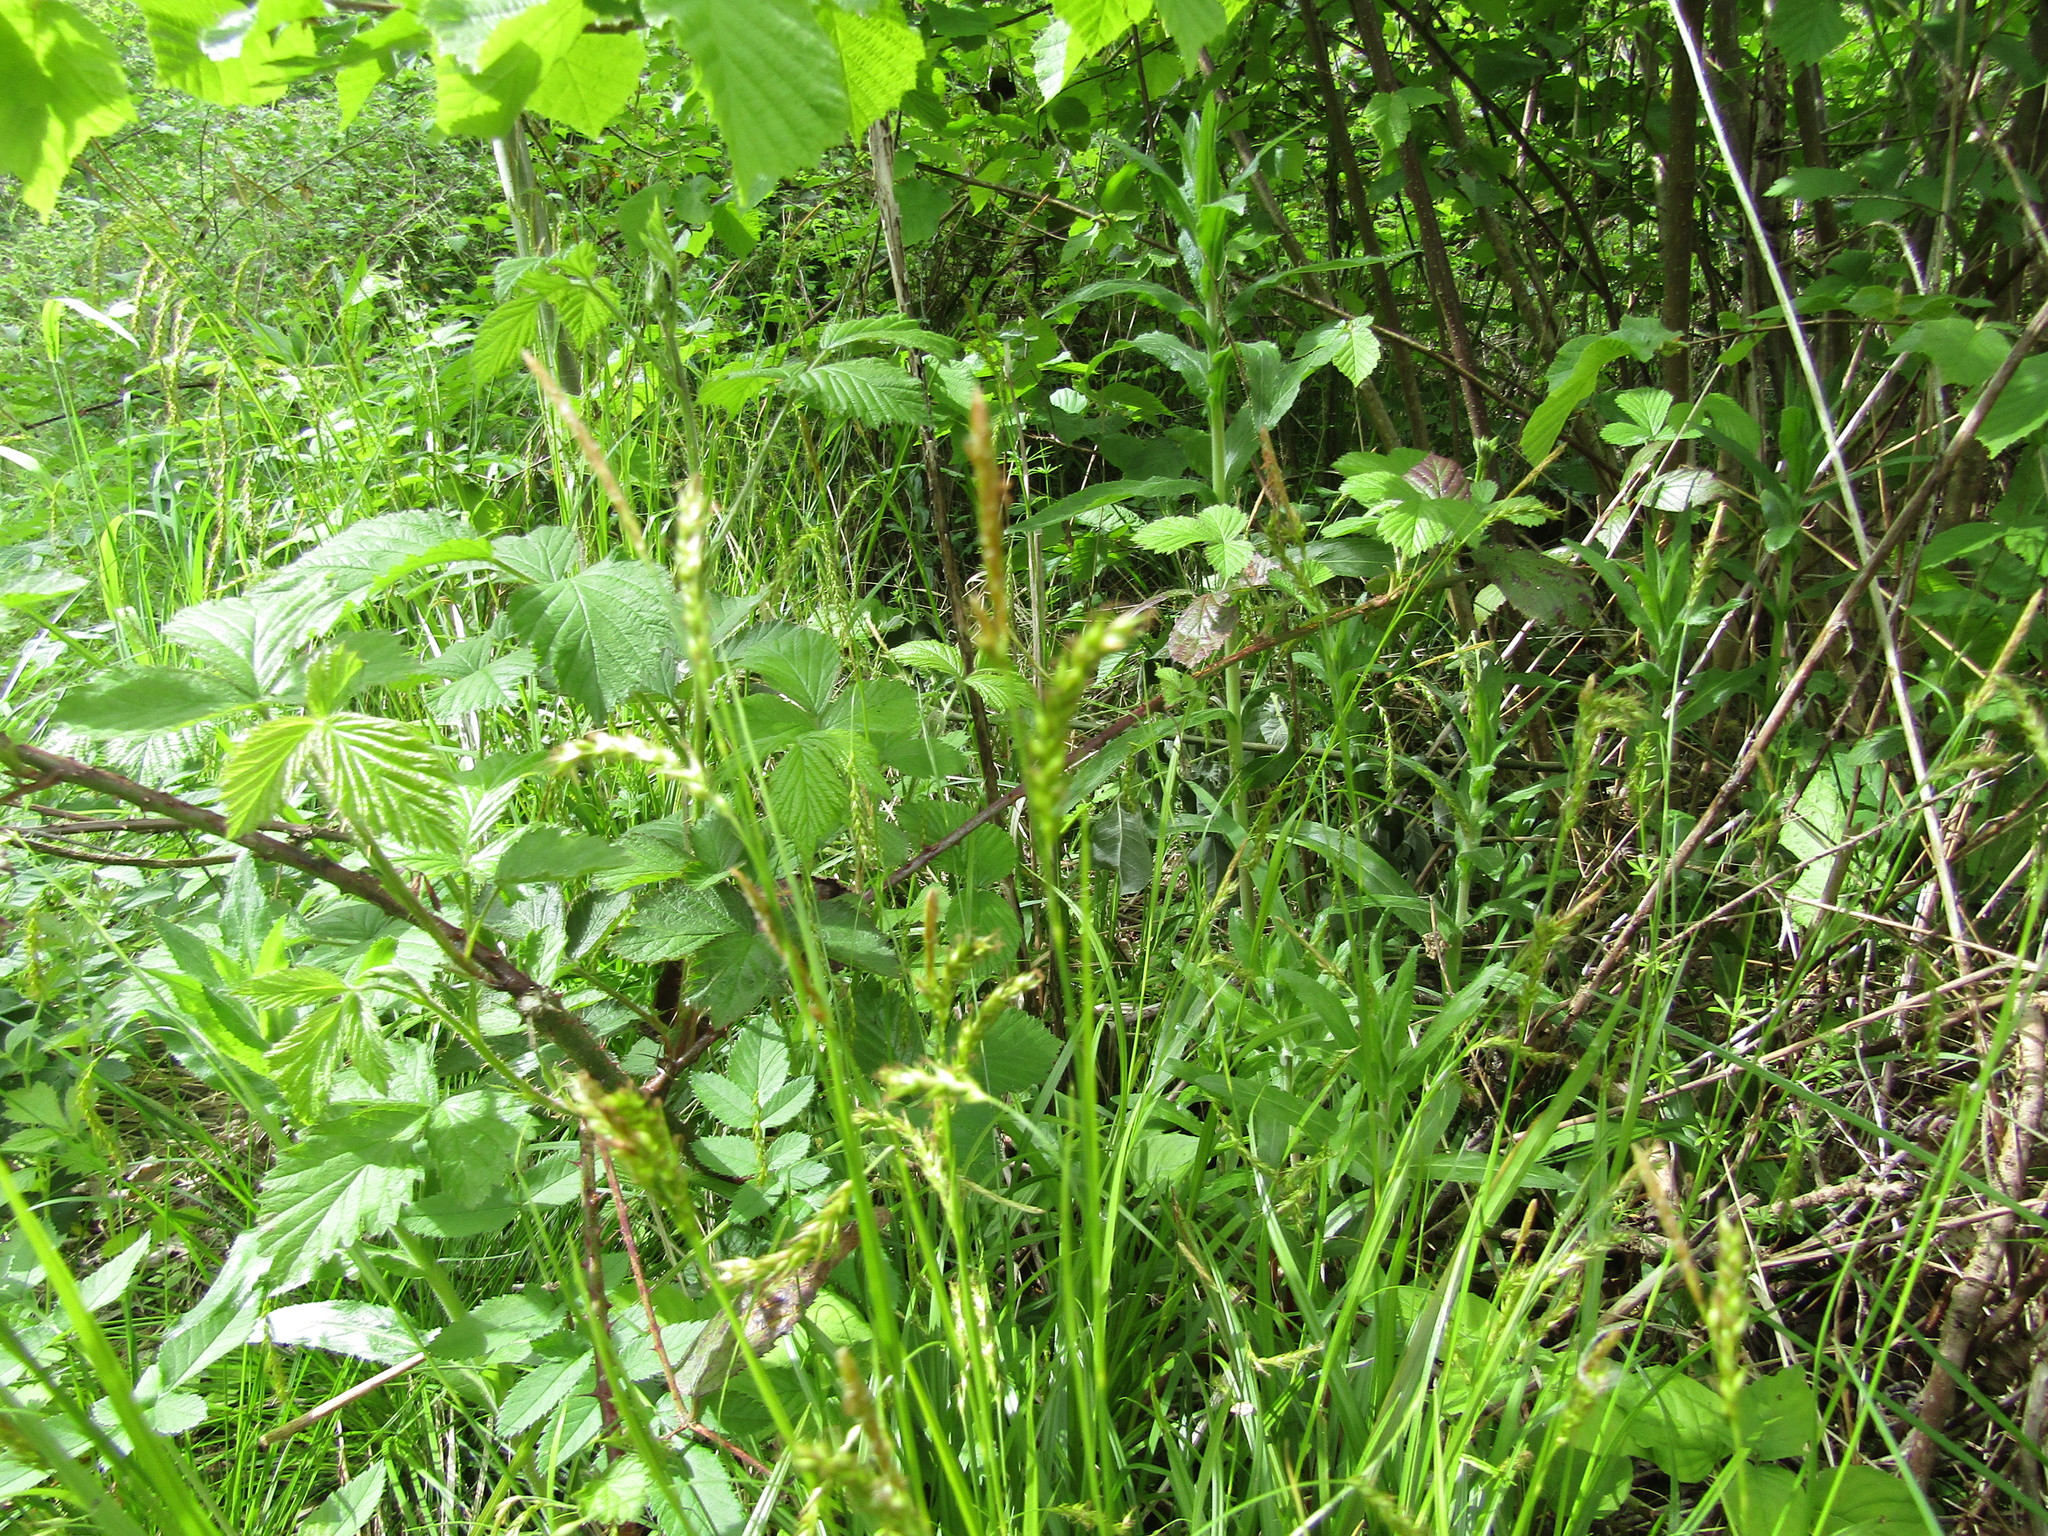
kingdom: Plantae
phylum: Tracheophyta
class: Liliopsida
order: Poales
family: Cyperaceae
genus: Carex
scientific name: Carex sylvatica
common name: Wood-sedge
